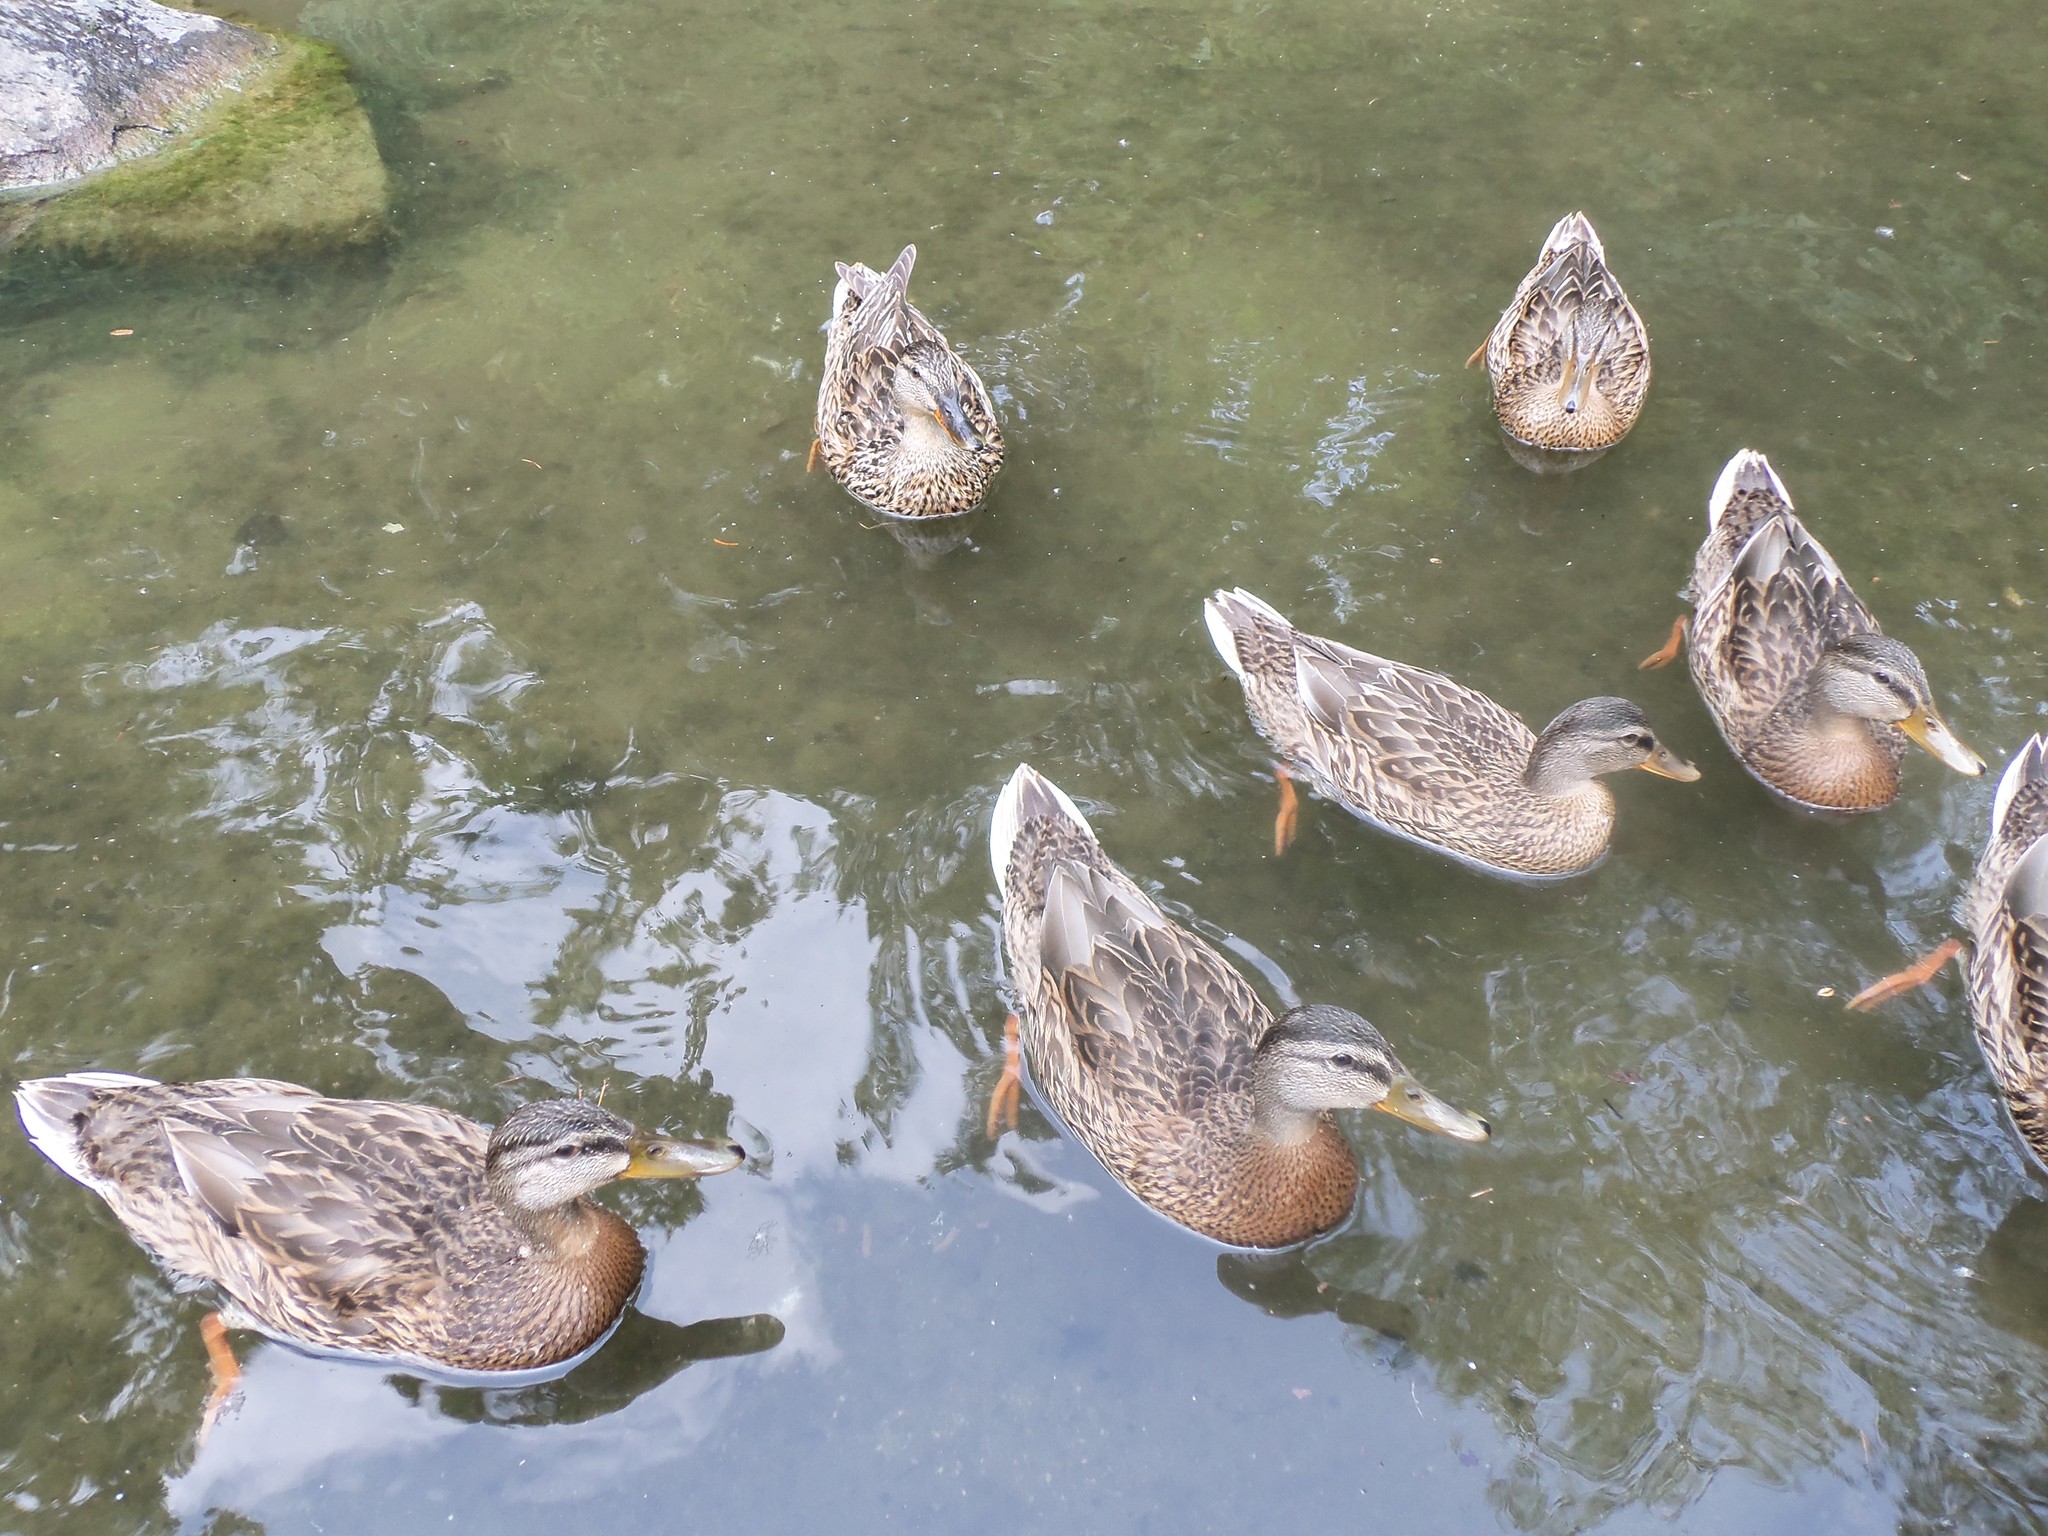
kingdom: Animalia
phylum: Chordata
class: Aves
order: Anseriformes
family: Anatidae
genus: Anas
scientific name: Anas platyrhynchos
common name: Mallard
